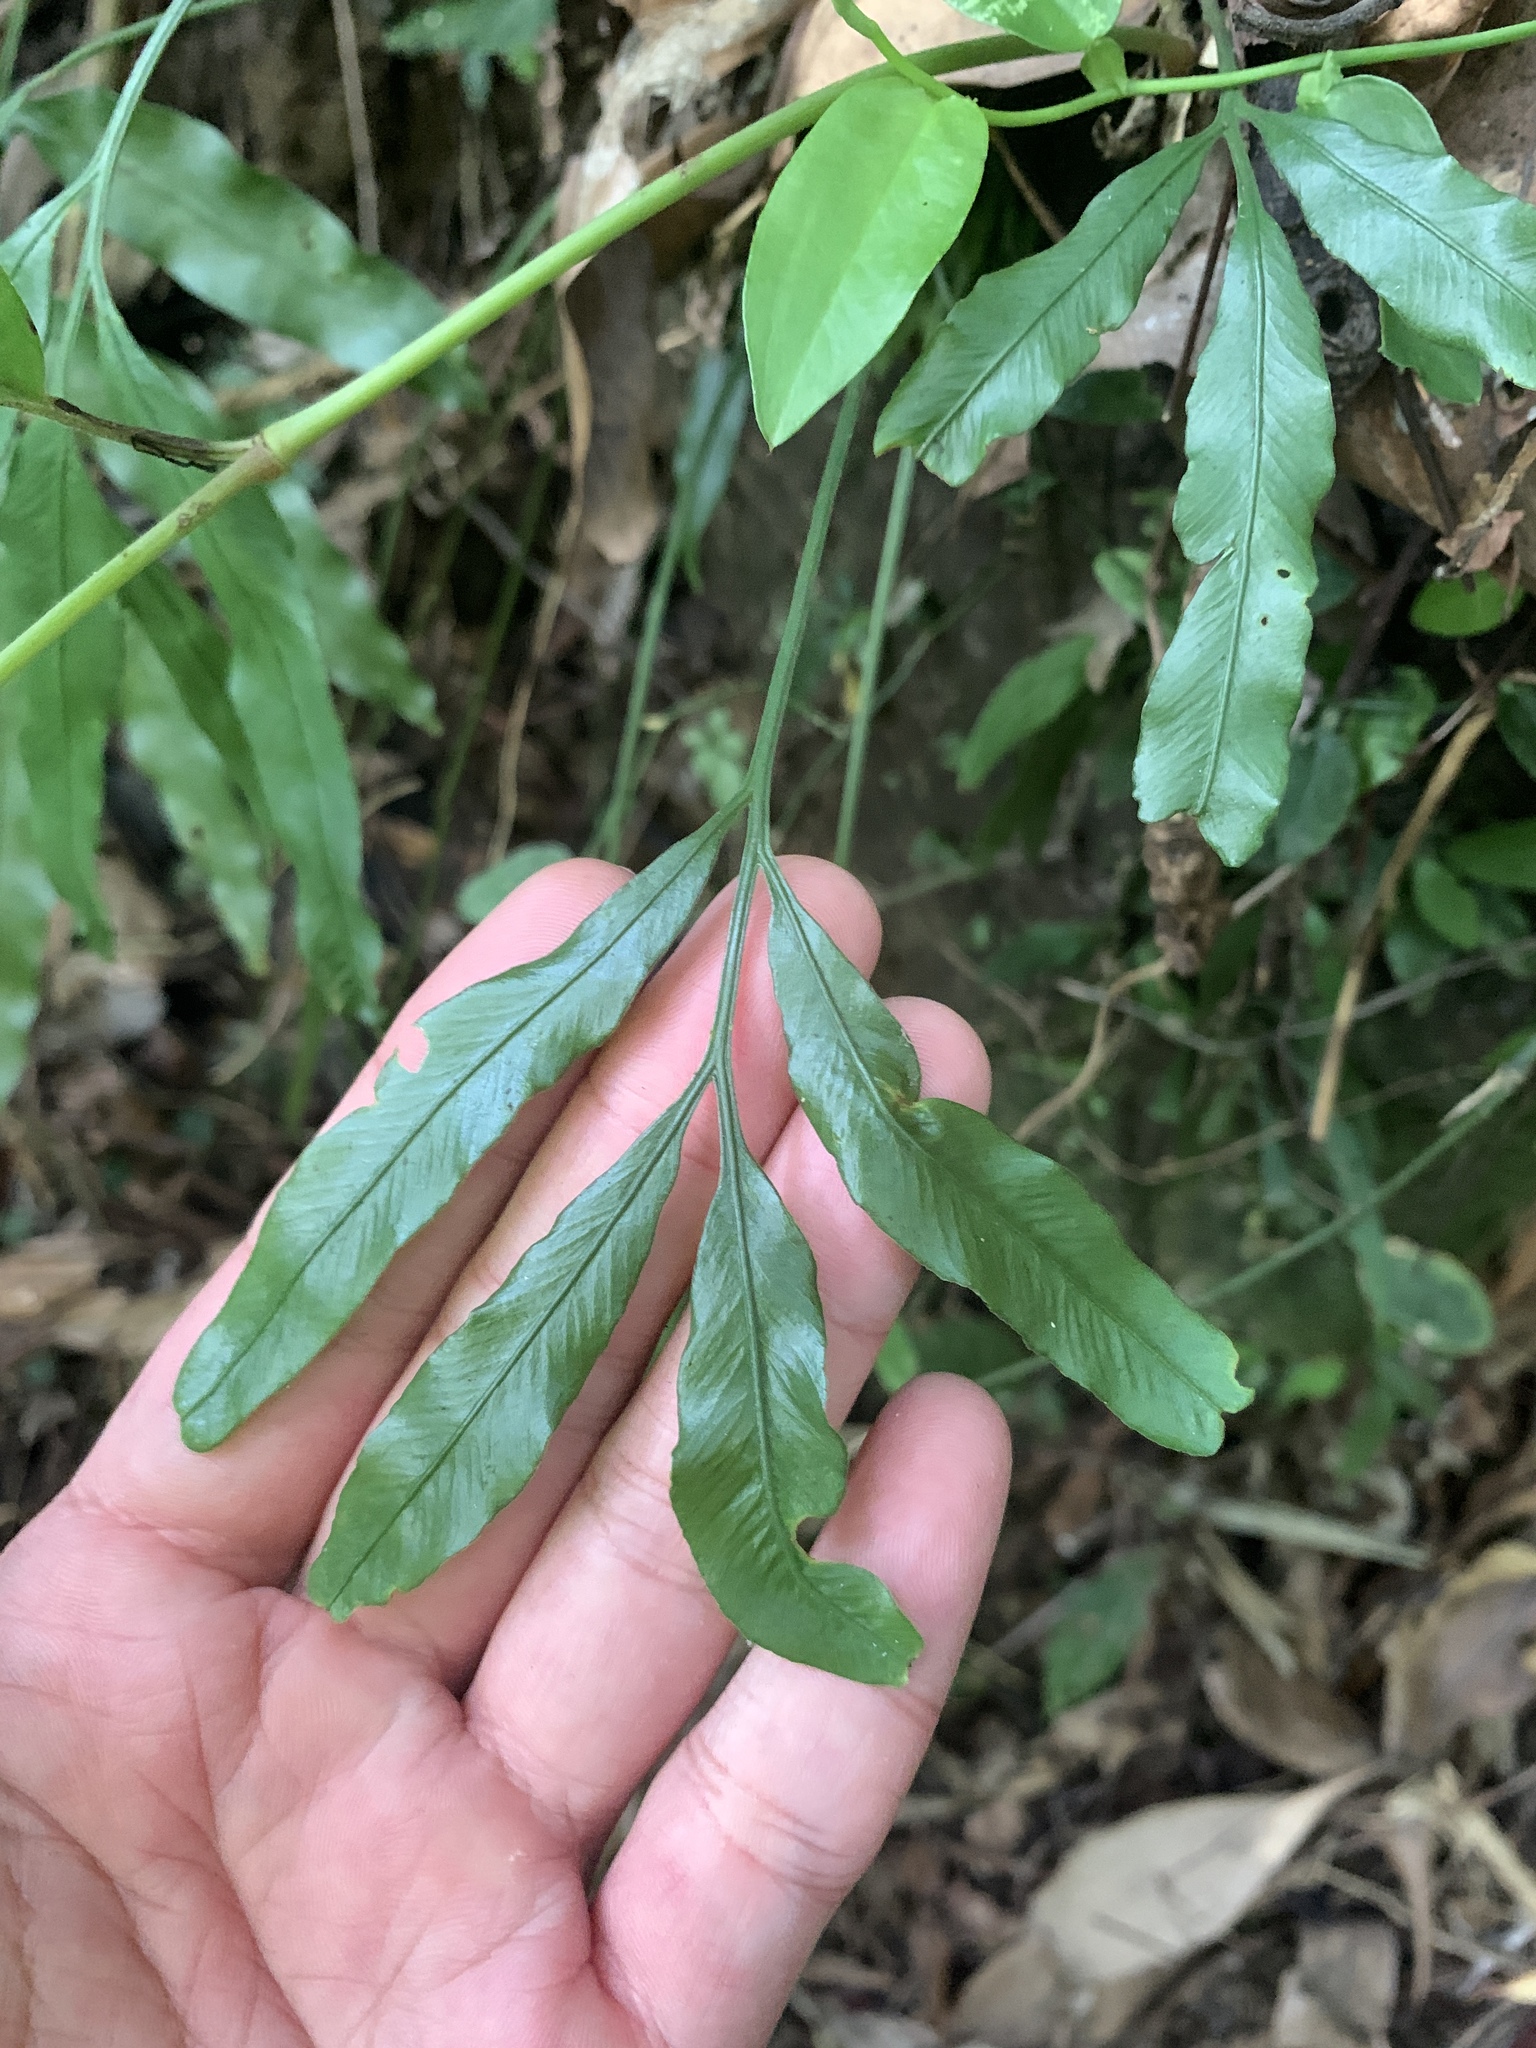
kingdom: Plantae
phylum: Tracheophyta
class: Polypodiopsida
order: Polypodiales
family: Aspleniaceae
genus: Asplenium
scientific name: Asplenium formosae
